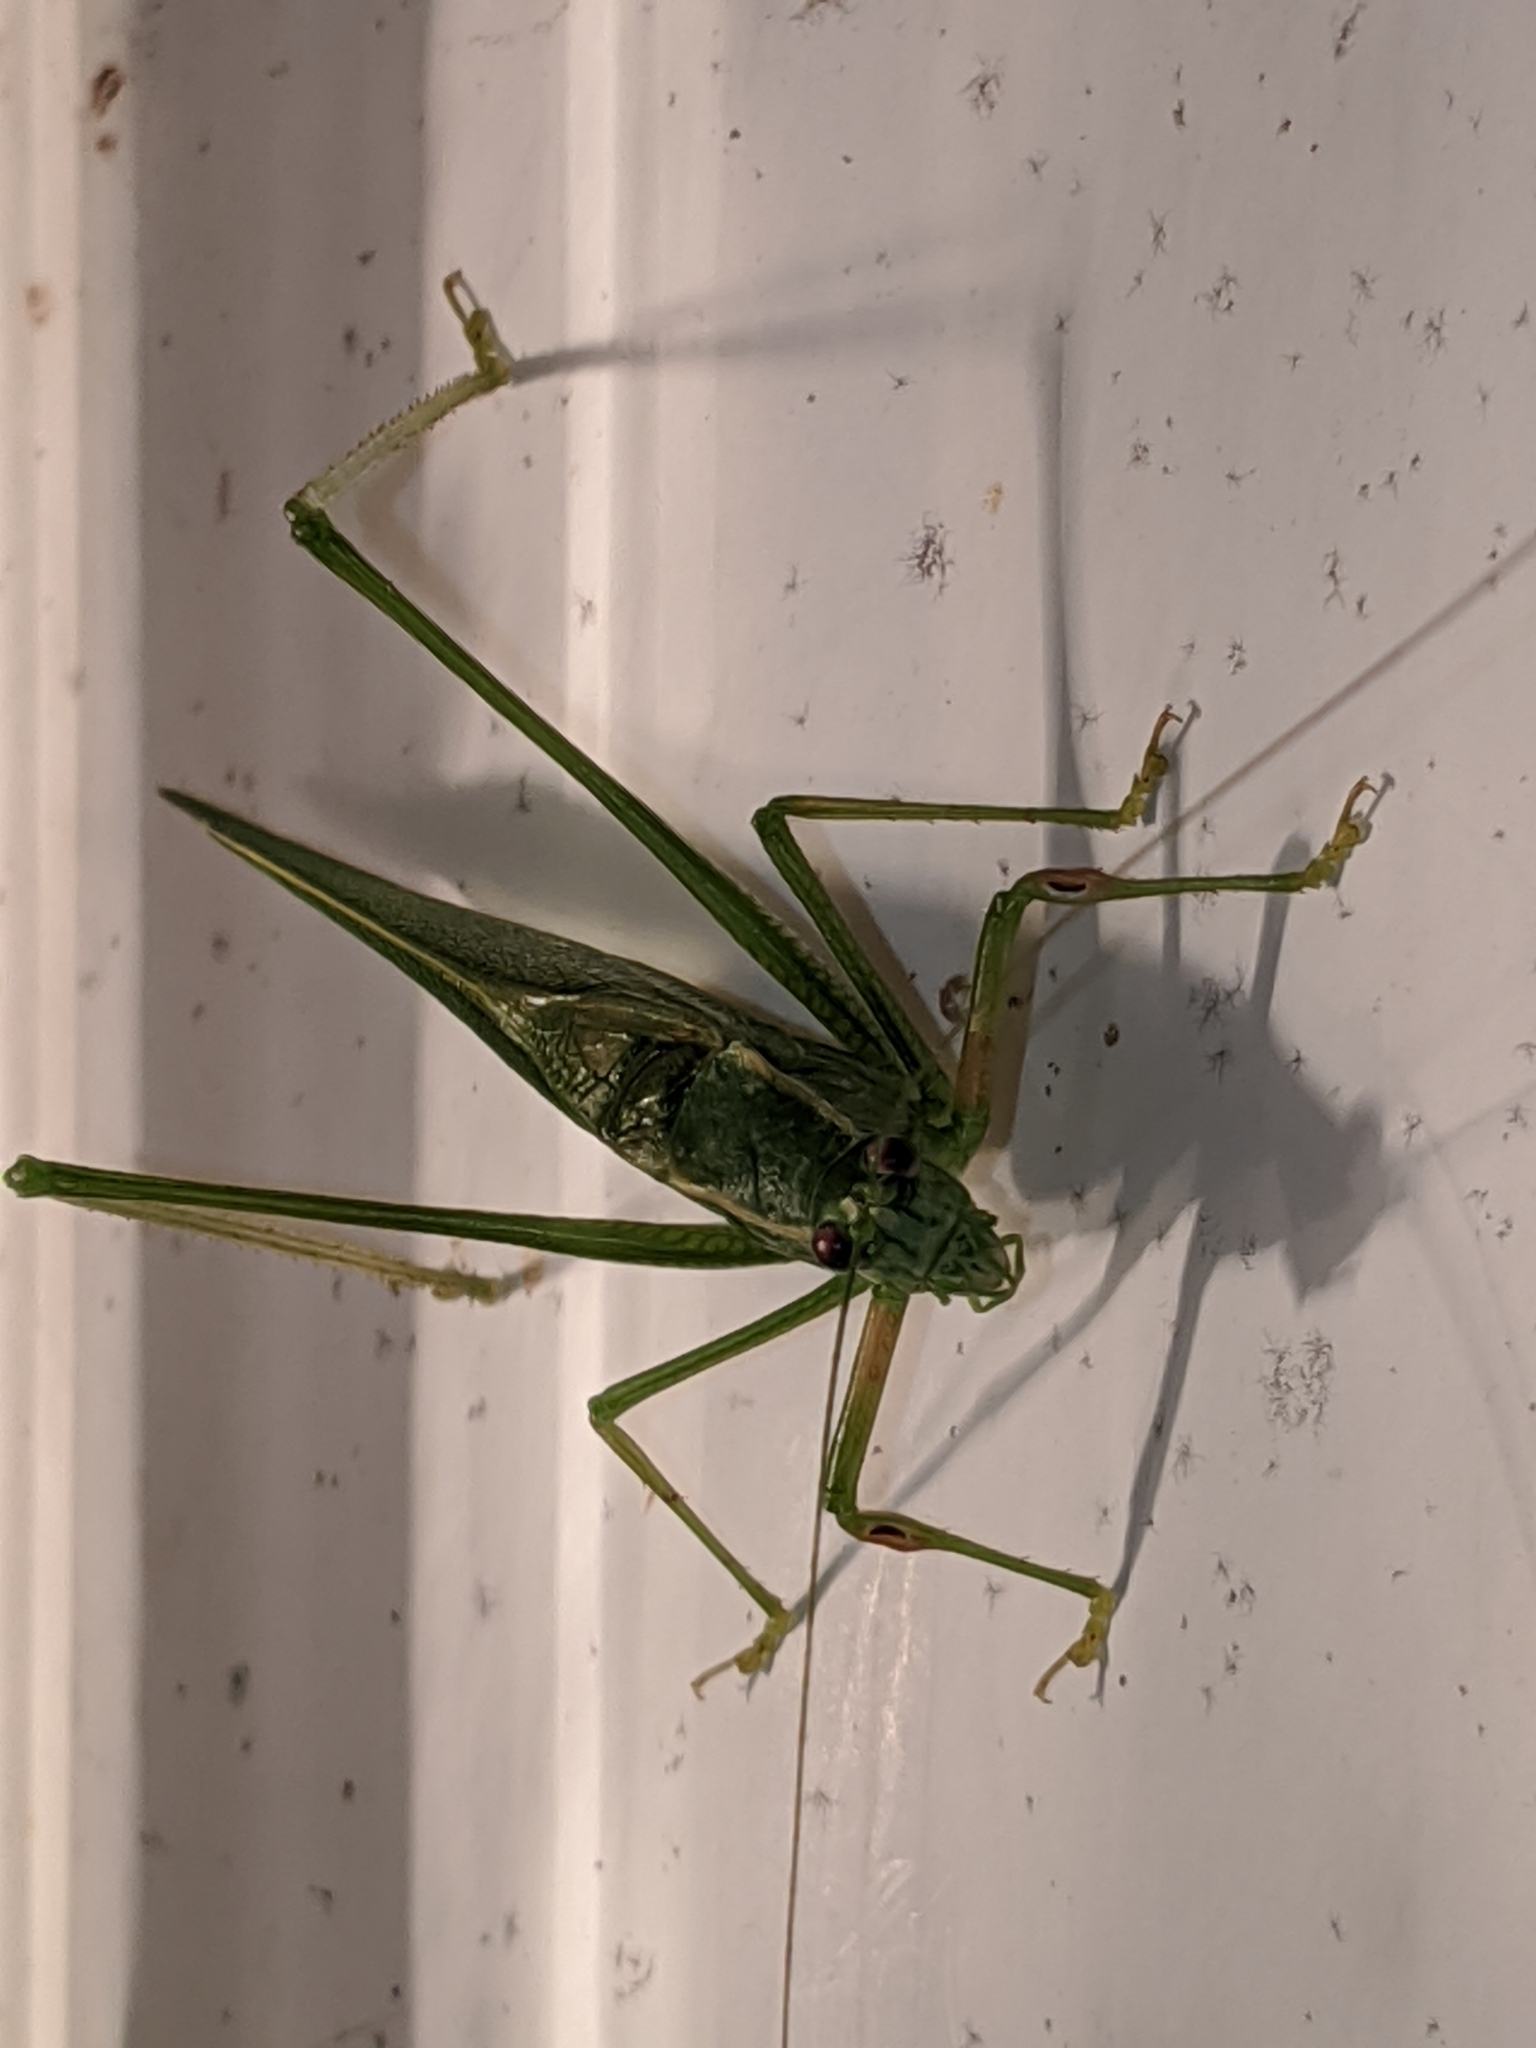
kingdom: Animalia
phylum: Arthropoda
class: Insecta
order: Orthoptera
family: Tettigoniidae
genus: Scudderia
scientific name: Scudderia septentrionalis
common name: Northern bush-katydid
